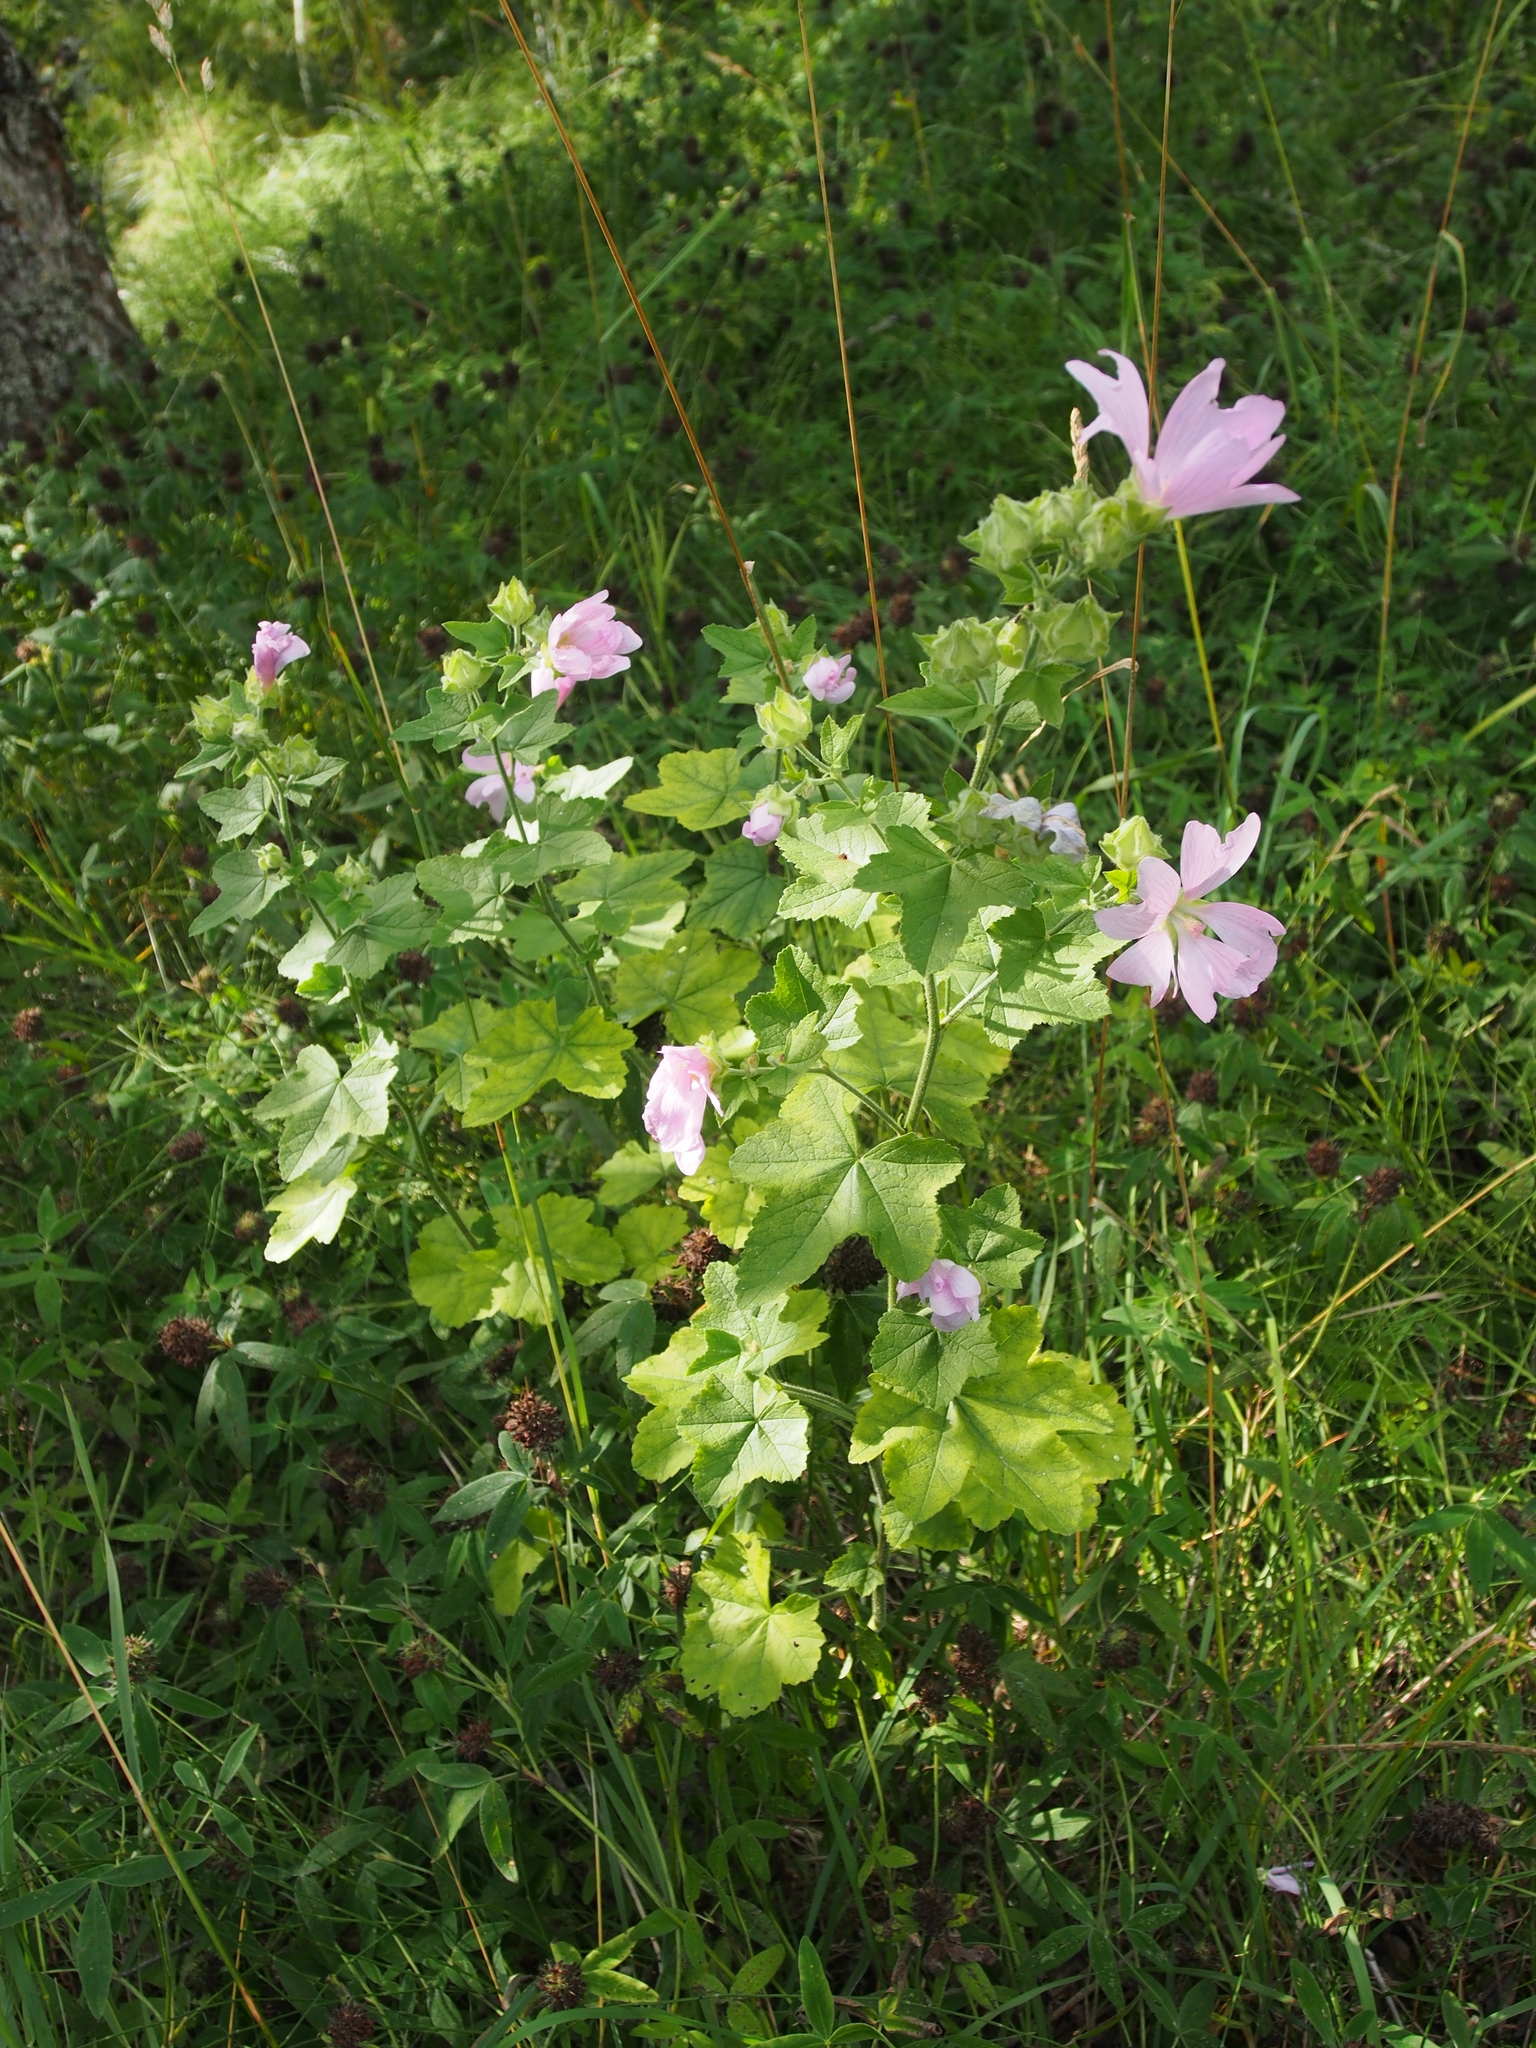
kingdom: Plantae
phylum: Tracheophyta
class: Magnoliopsida
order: Malvales
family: Malvaceae
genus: Malva
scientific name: Malva thuringiaca
